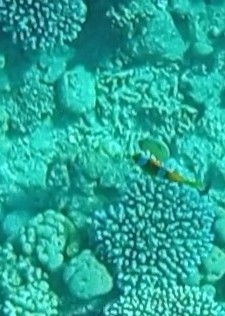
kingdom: Animalia
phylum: Chordata
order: Perciformes
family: Pomacentridae
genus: Amphiprion
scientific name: Amphiprion bicinctus
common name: Two-banded anemonefish
